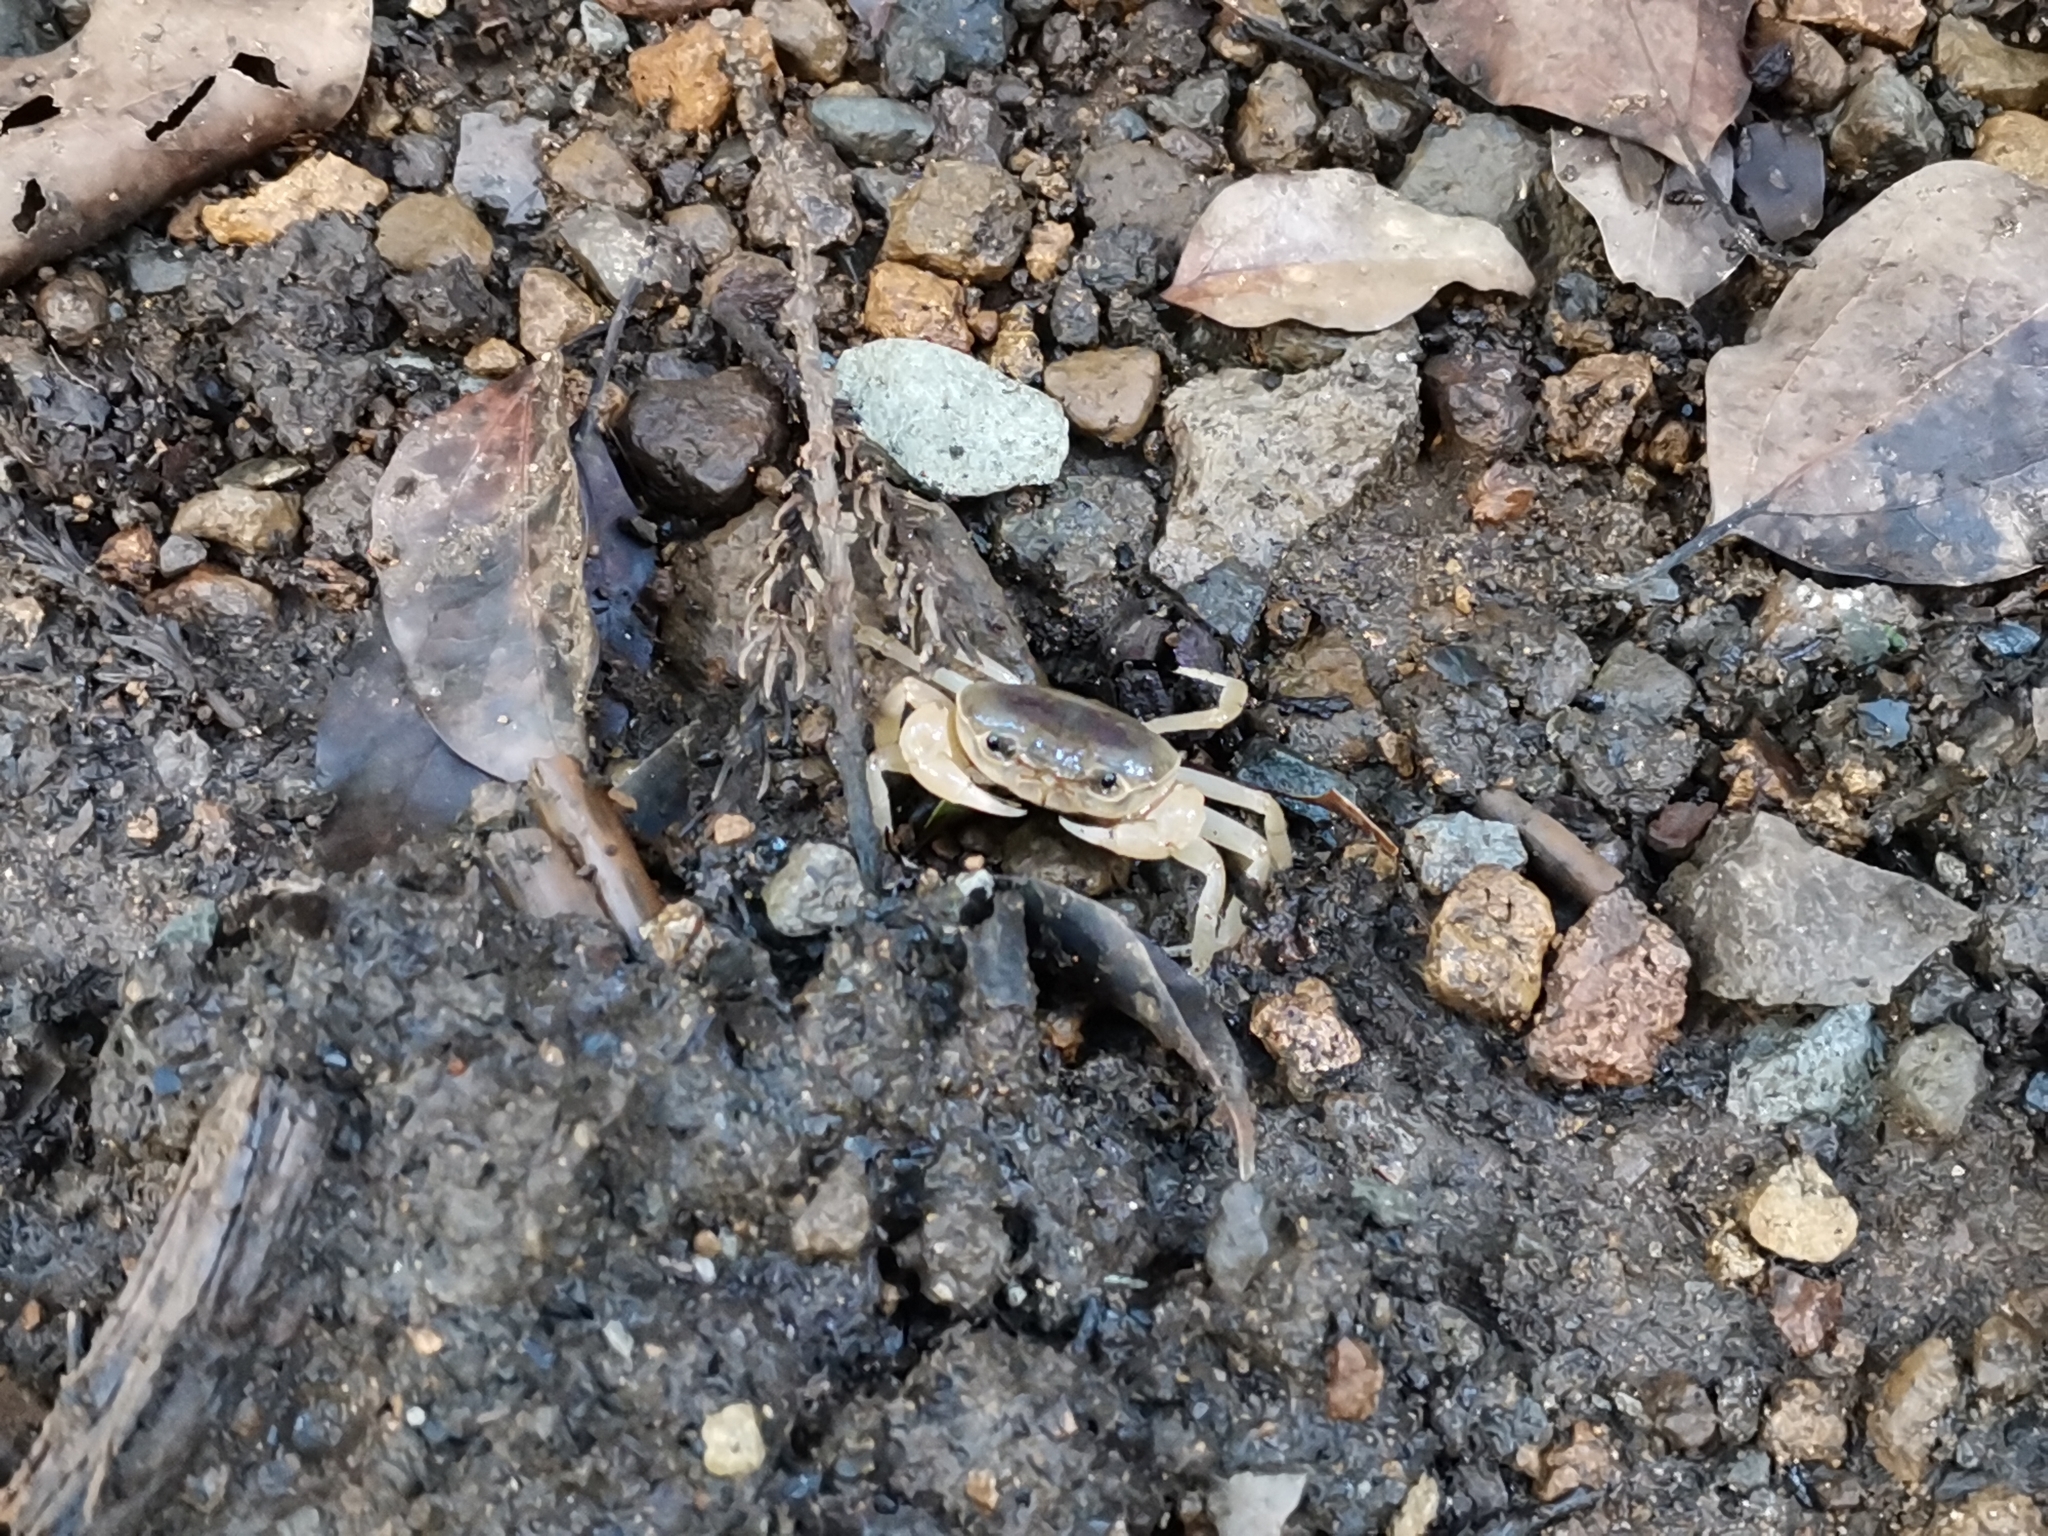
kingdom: Animalia
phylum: Arthropoda
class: Malacostraca
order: Decapoda
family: Potamidae
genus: Geothelphusa
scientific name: Geothelphusa dehaani
